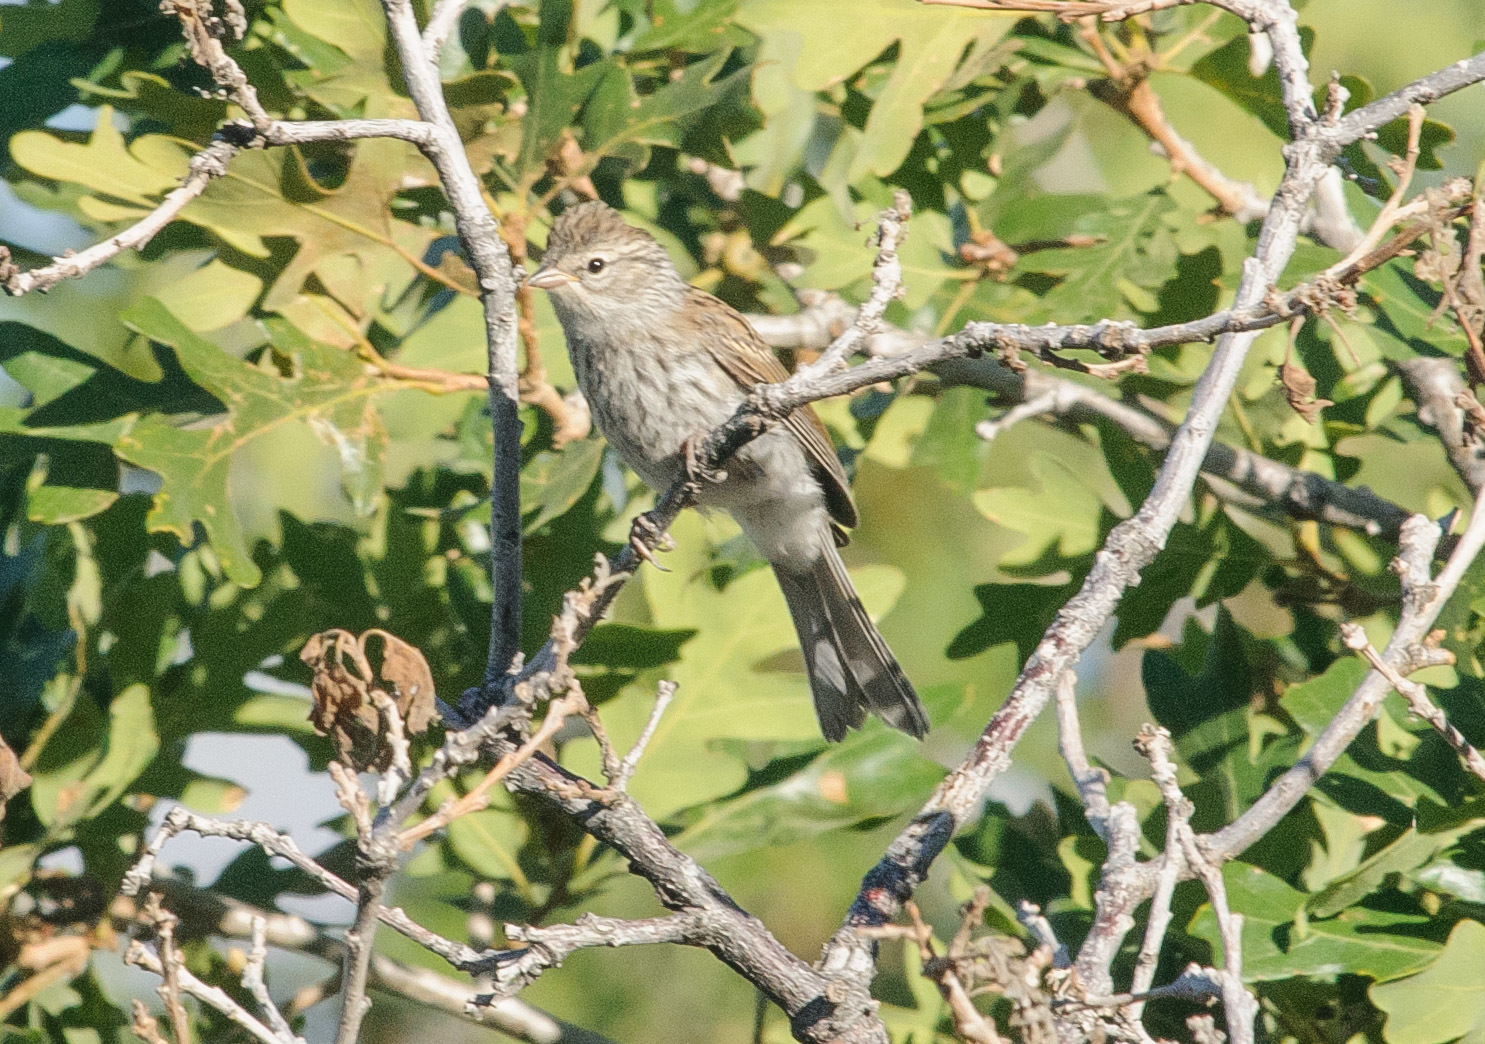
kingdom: Animalia
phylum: Chordata
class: Aves
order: Passeriformes
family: Passerellidae
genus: Spizella
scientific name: Spizella passerina
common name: Chipping sparrow
